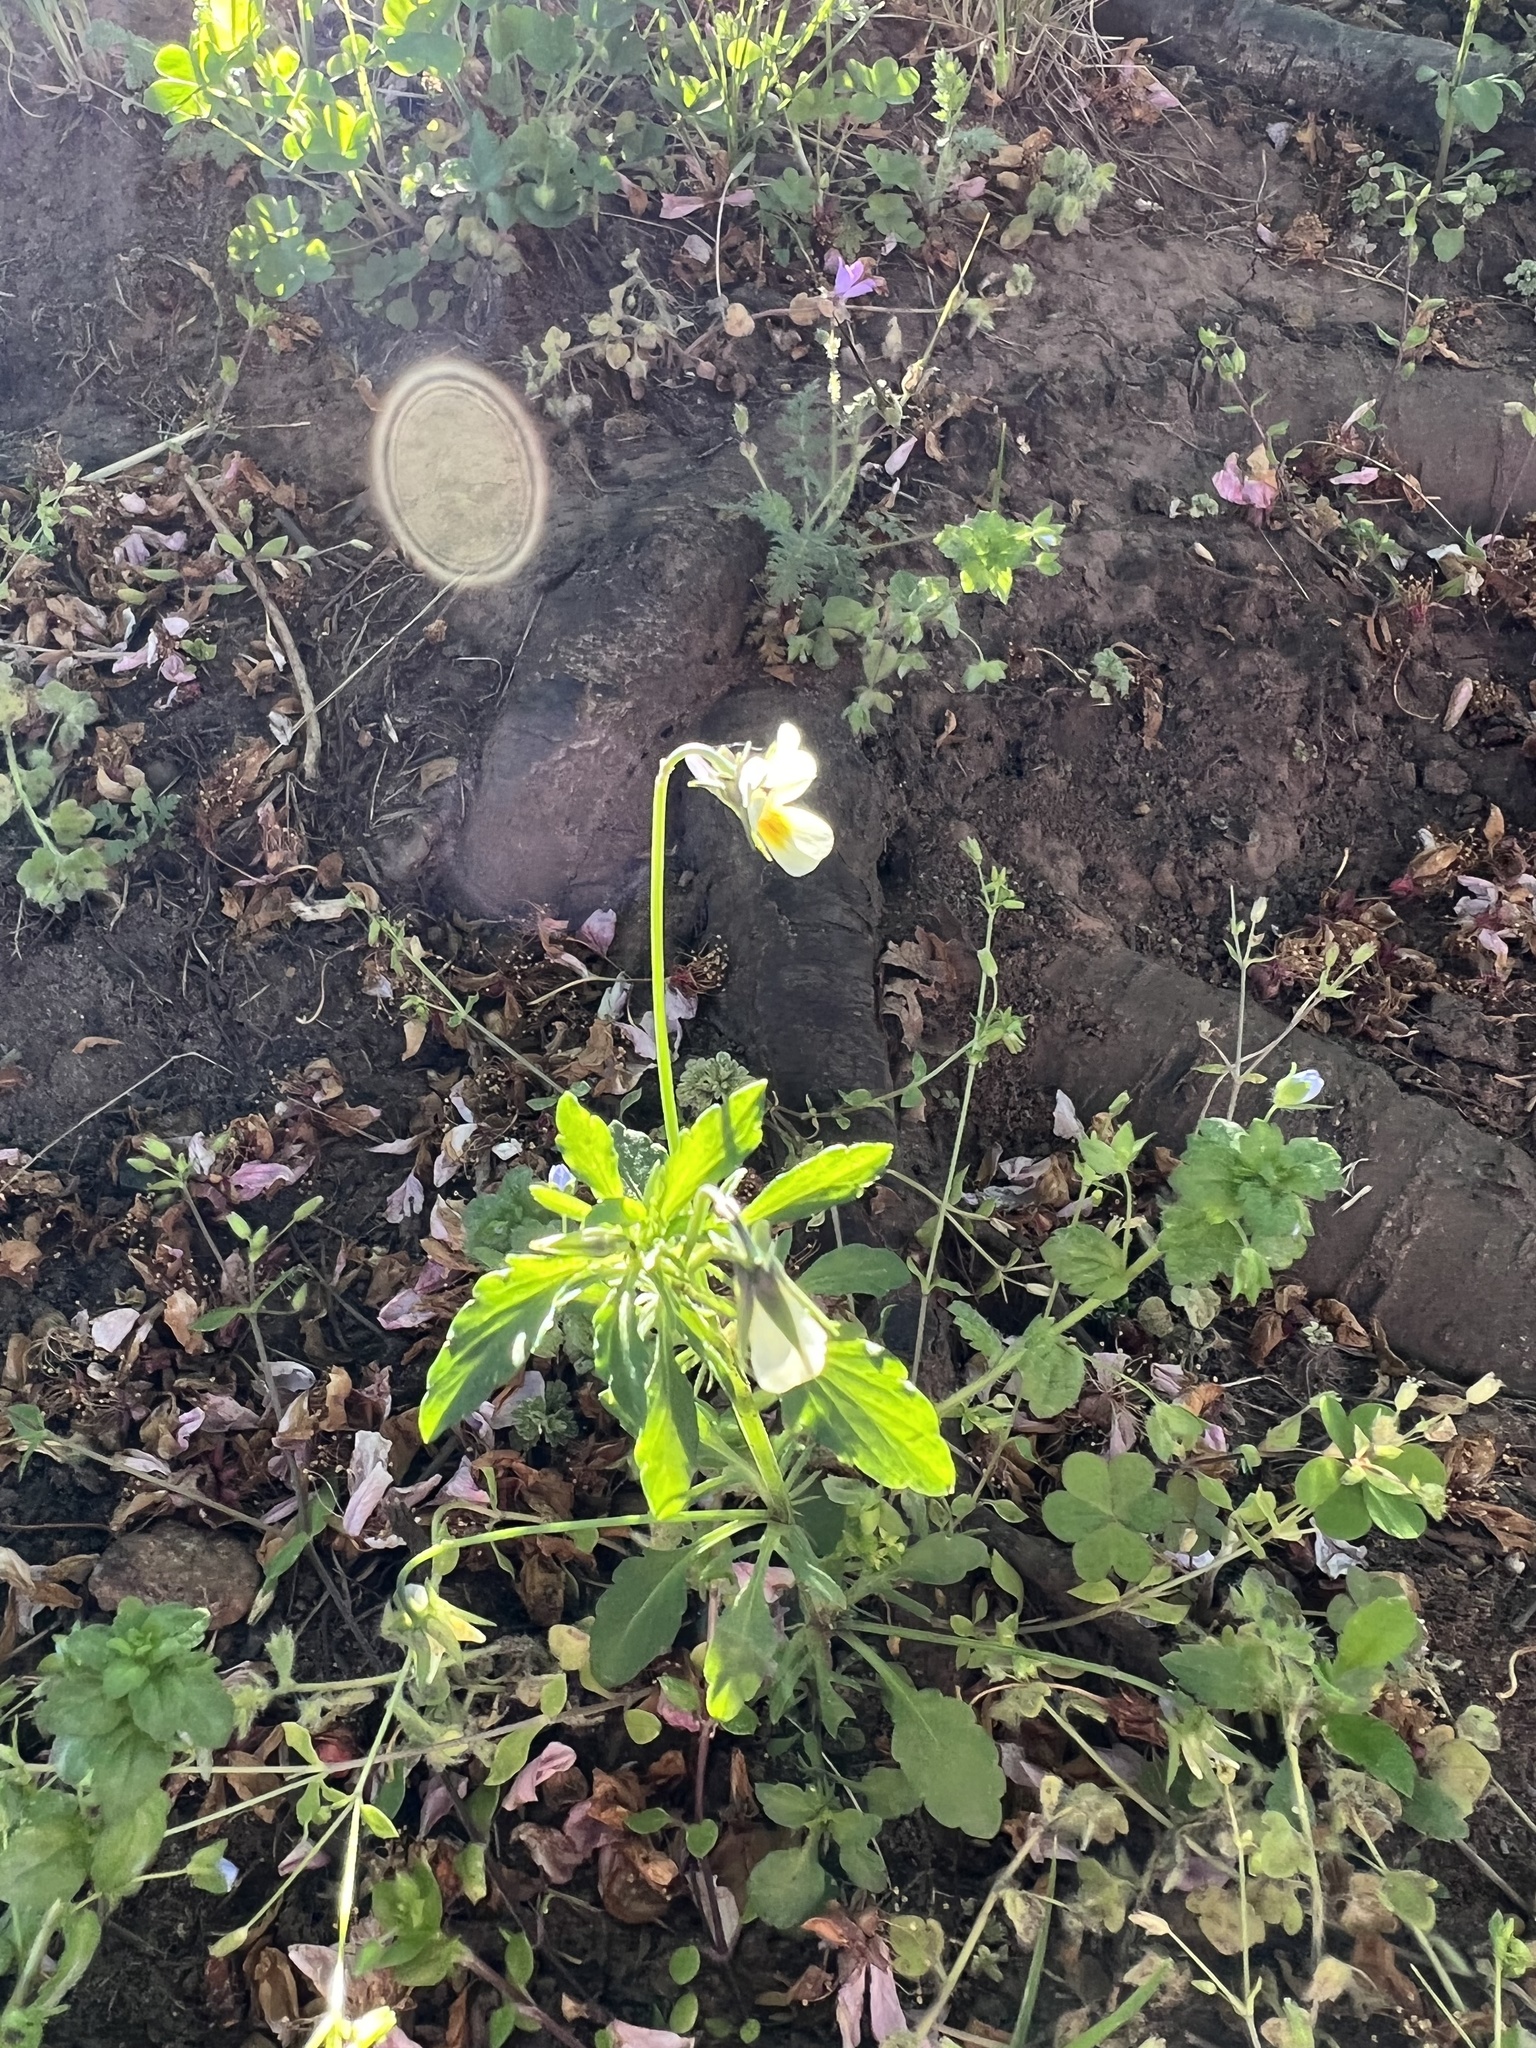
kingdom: Plantae
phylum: Tracheophyta
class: Magnoliopsida
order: Malpighiales
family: Violaceae
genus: Viola
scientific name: Viola arvensis
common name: Field pansy
